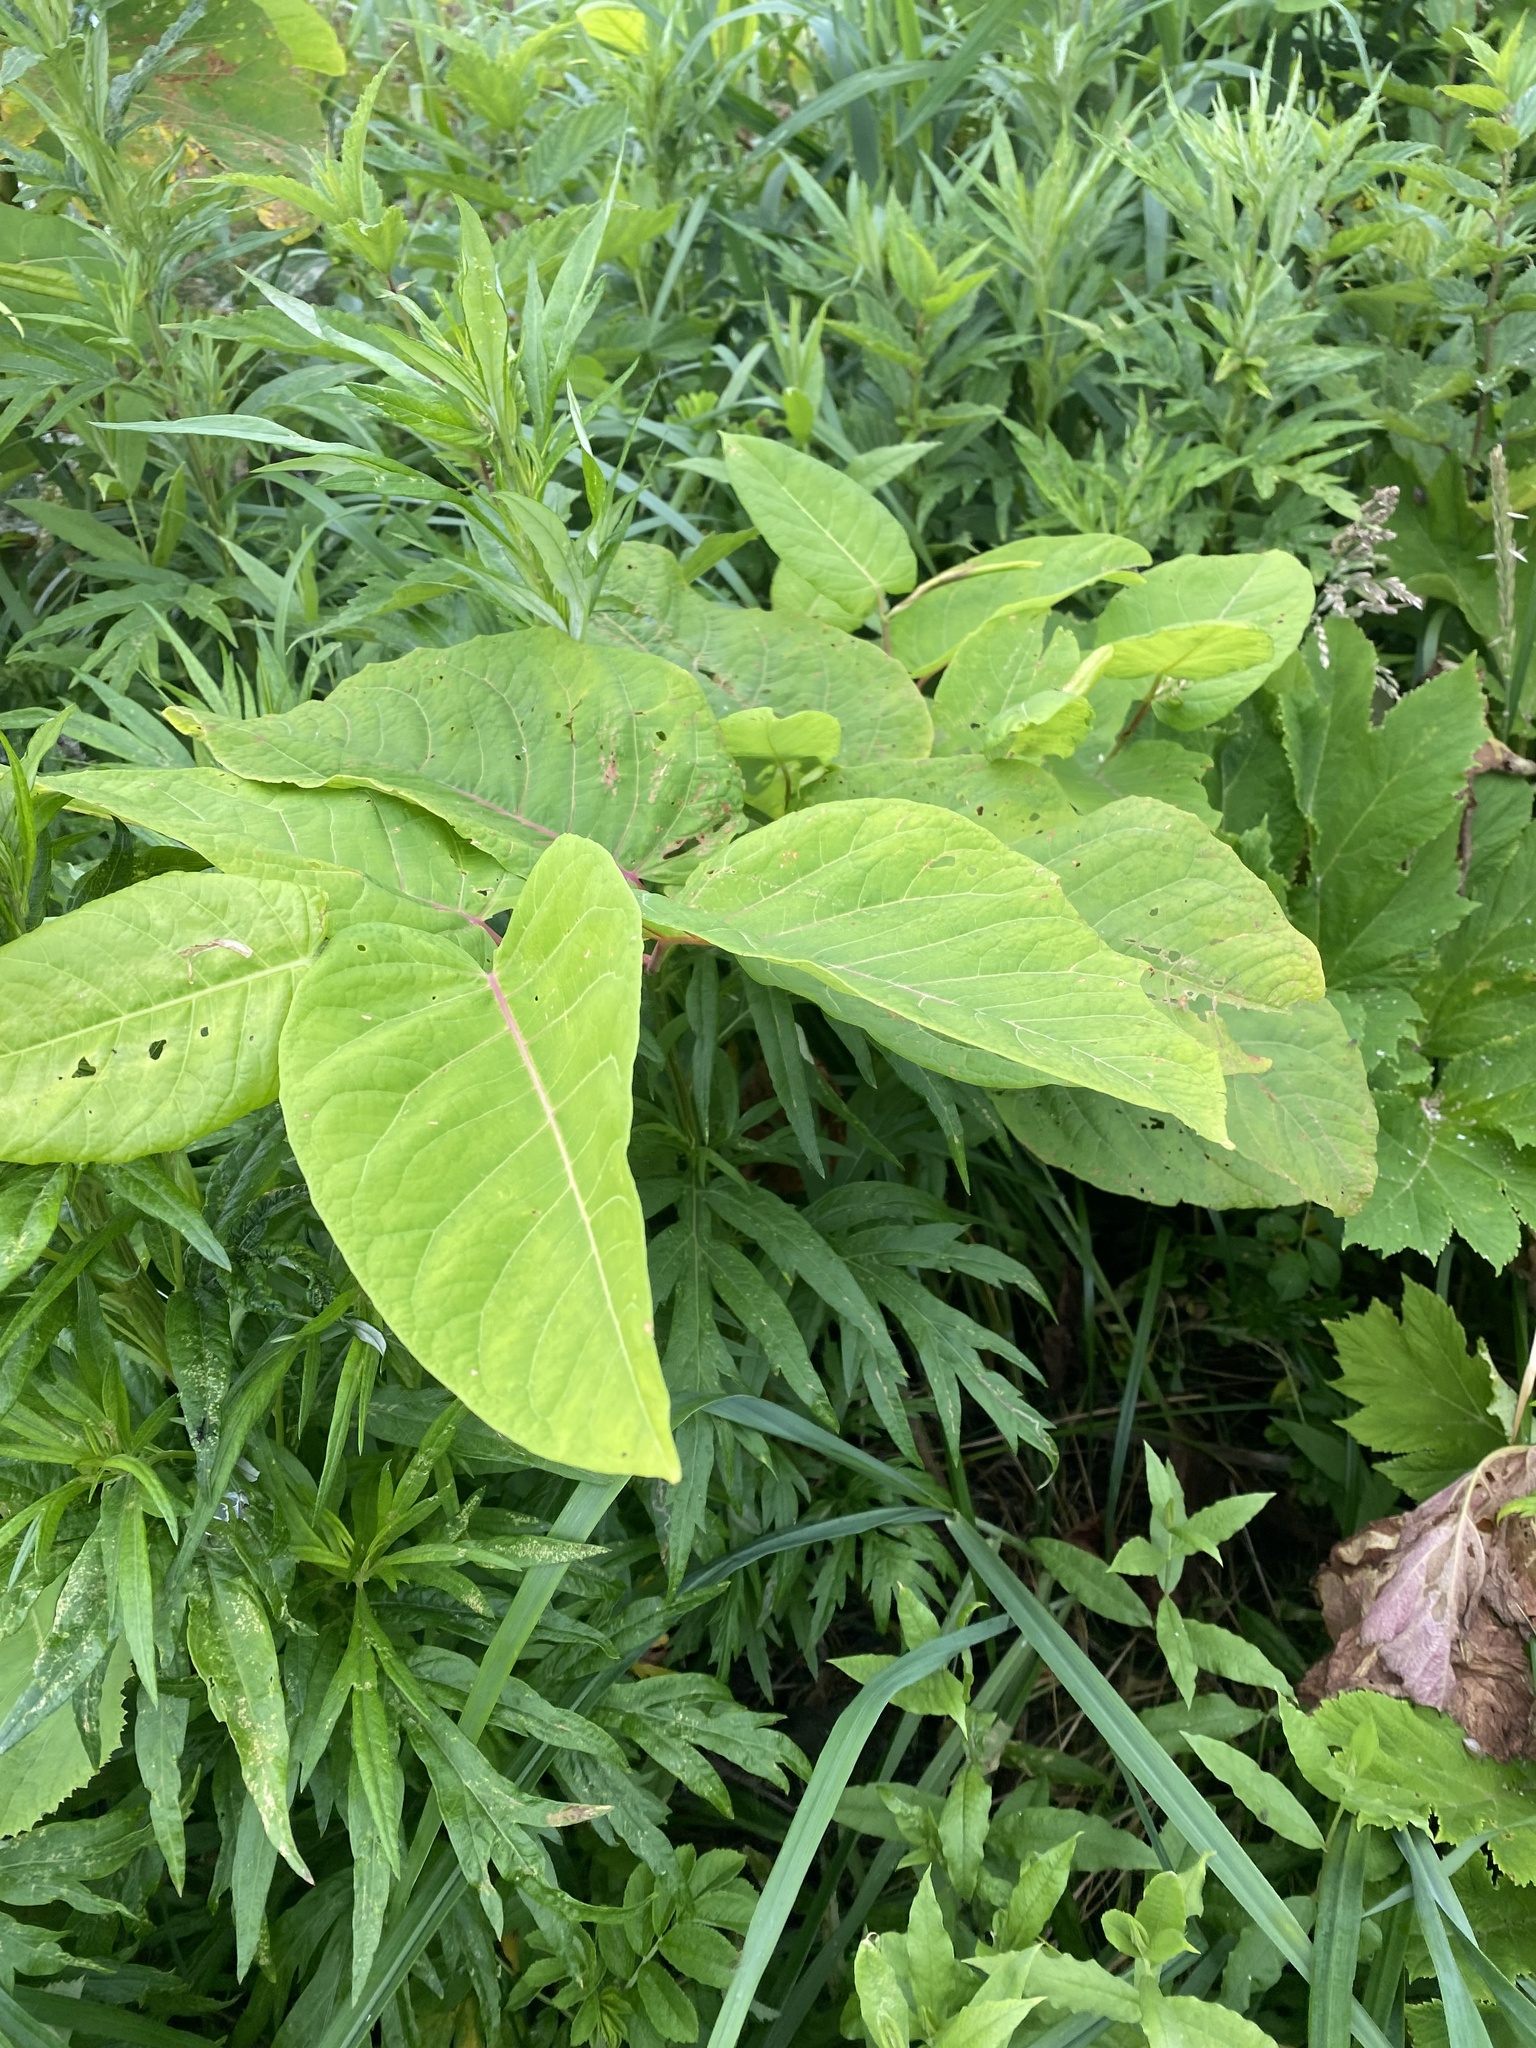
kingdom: Plantae
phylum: Tracheophyta
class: Magnoliopsida
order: Caryophyllales
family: Polygonaceae
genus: Reynoutria
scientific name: Reynoutria sachalinensis
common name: Giant knotweed
